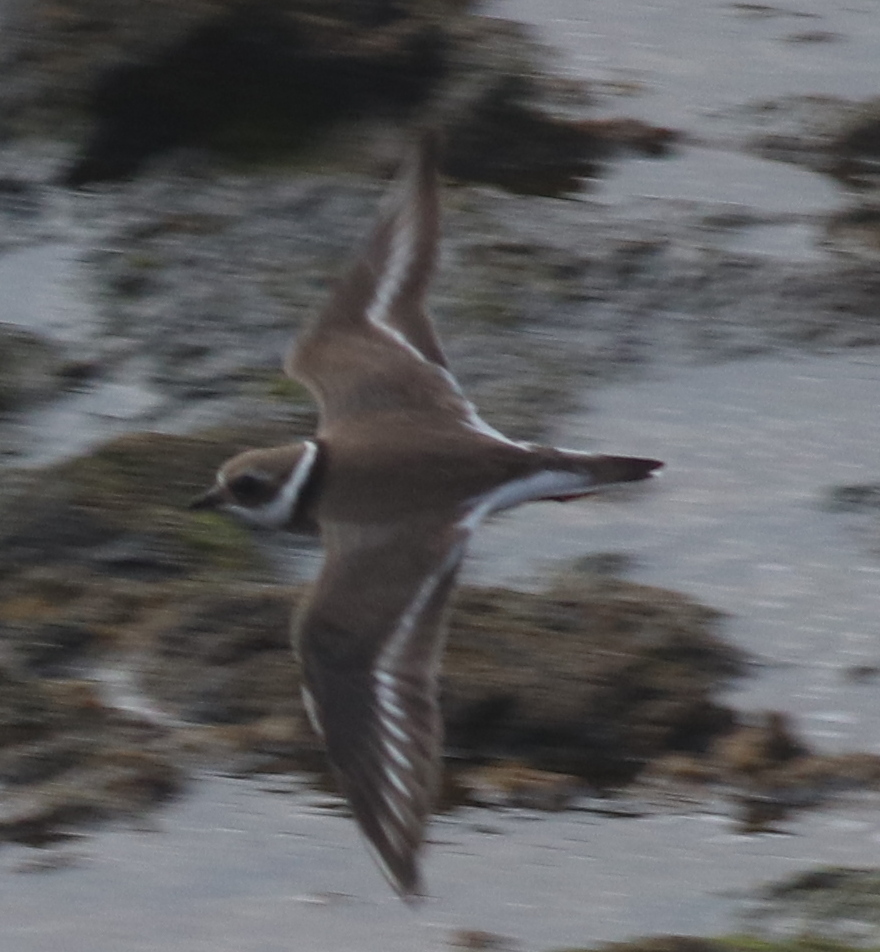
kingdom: Animalia
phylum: Chordata
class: Aves
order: Charadriiformes
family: Charadriidae
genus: Charadrius
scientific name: Charadrius hiaticula
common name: Common ringed plover
